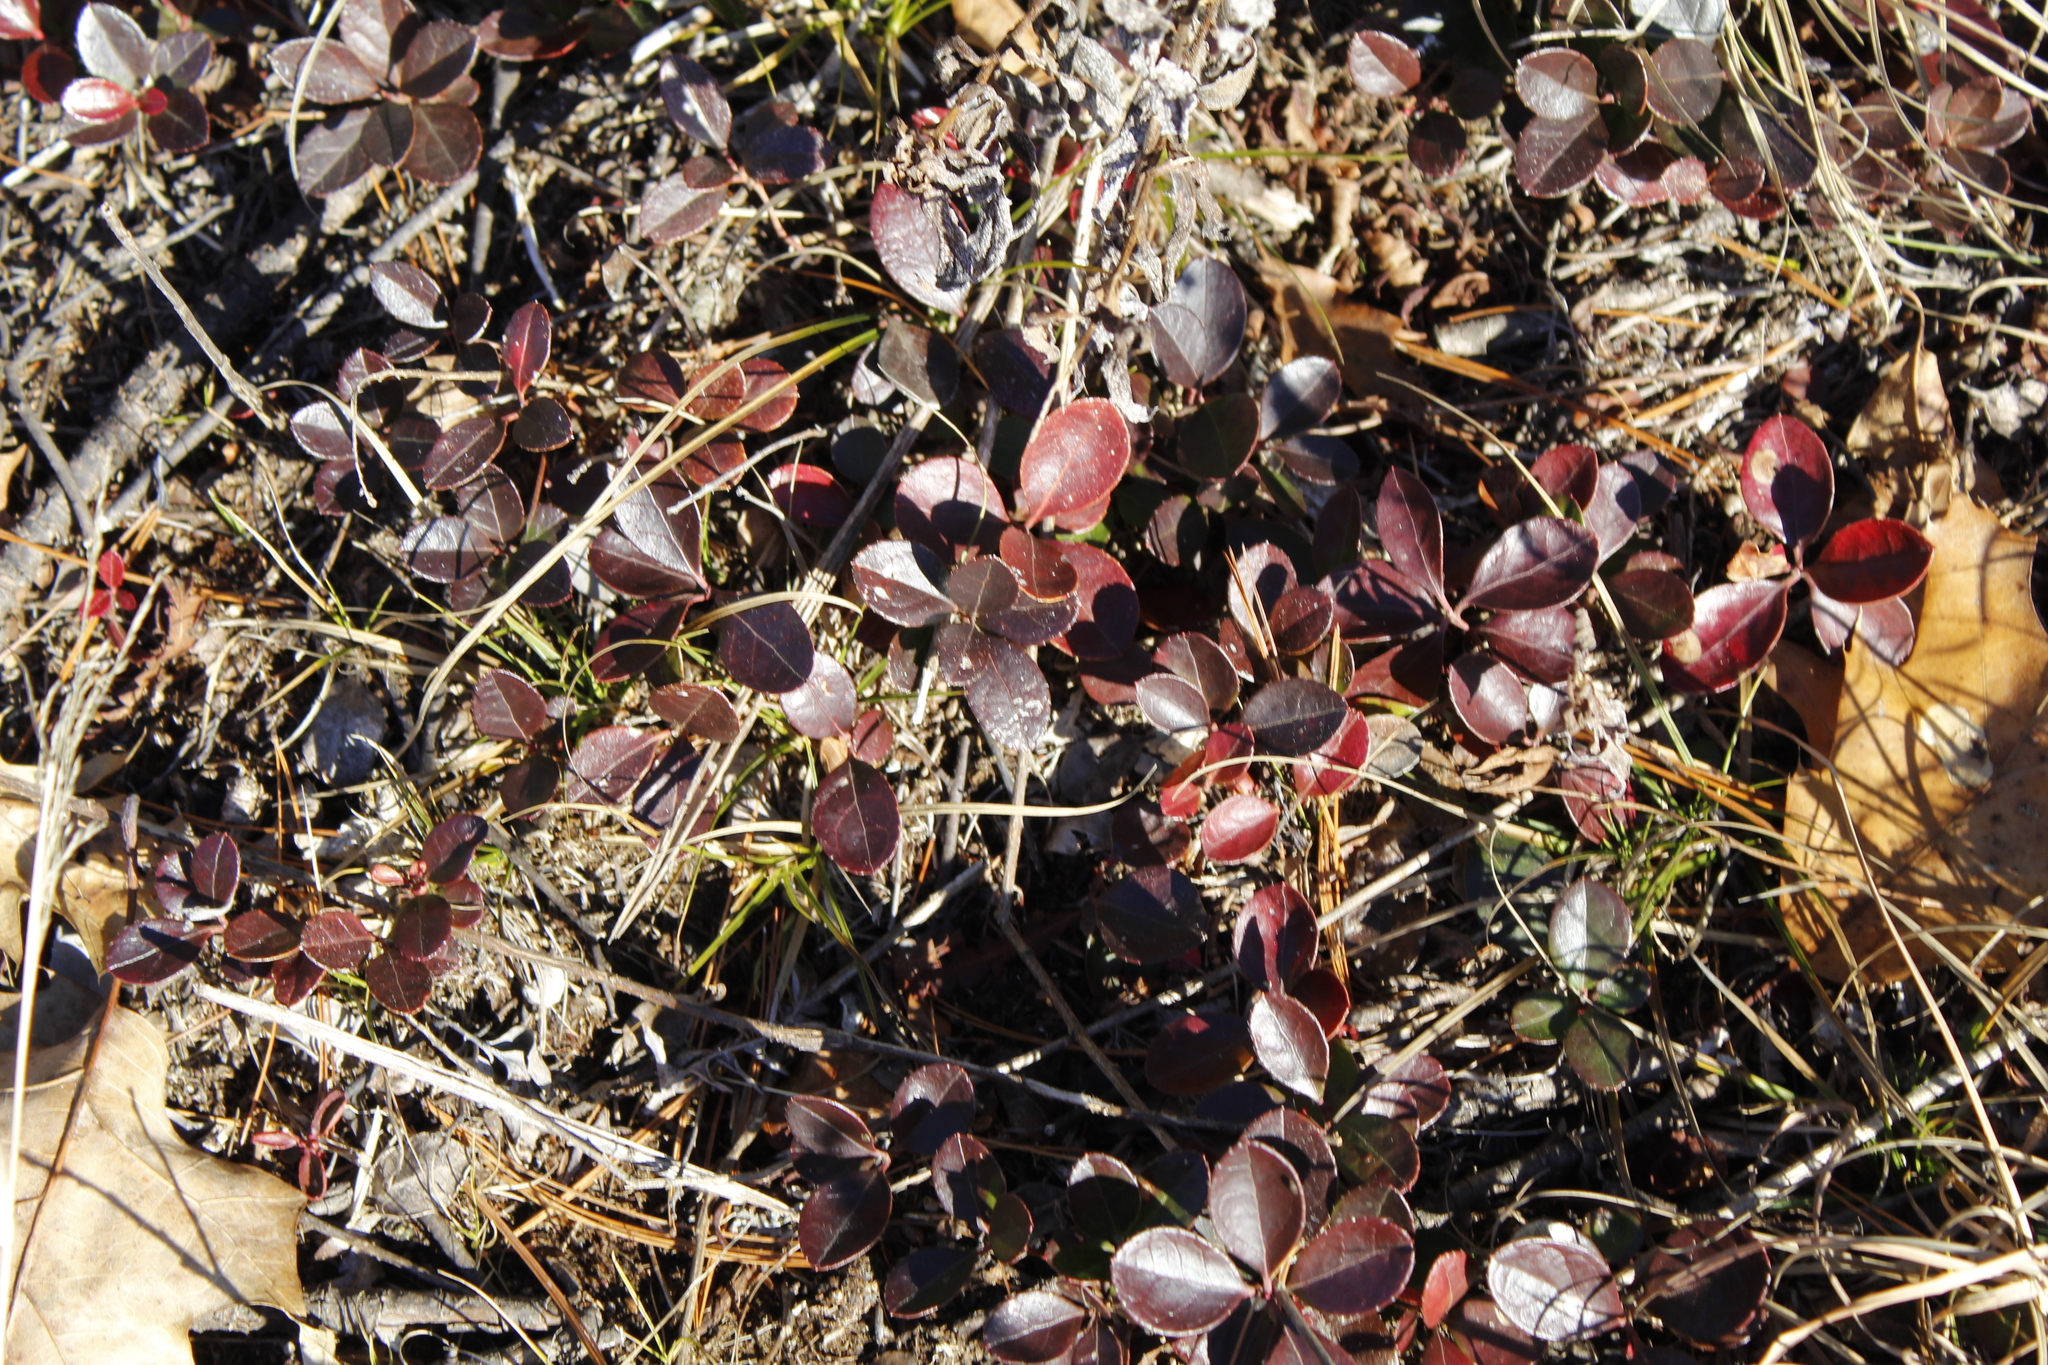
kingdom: Plantae
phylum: Tracheophyta
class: Magnoliopsida
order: Ericales
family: Ericaceae
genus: Gaultheria
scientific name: Gaultheria procumbens
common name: Checkerberry
